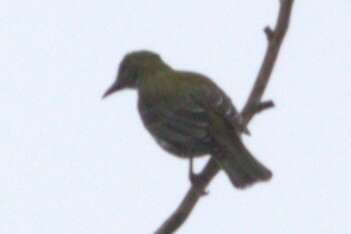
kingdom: Animalia
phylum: Chordata
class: Aves
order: Passeriformes
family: Oriolidae
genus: Oriolus
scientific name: Oriolus sagittatus
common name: Olive-backed oriole
